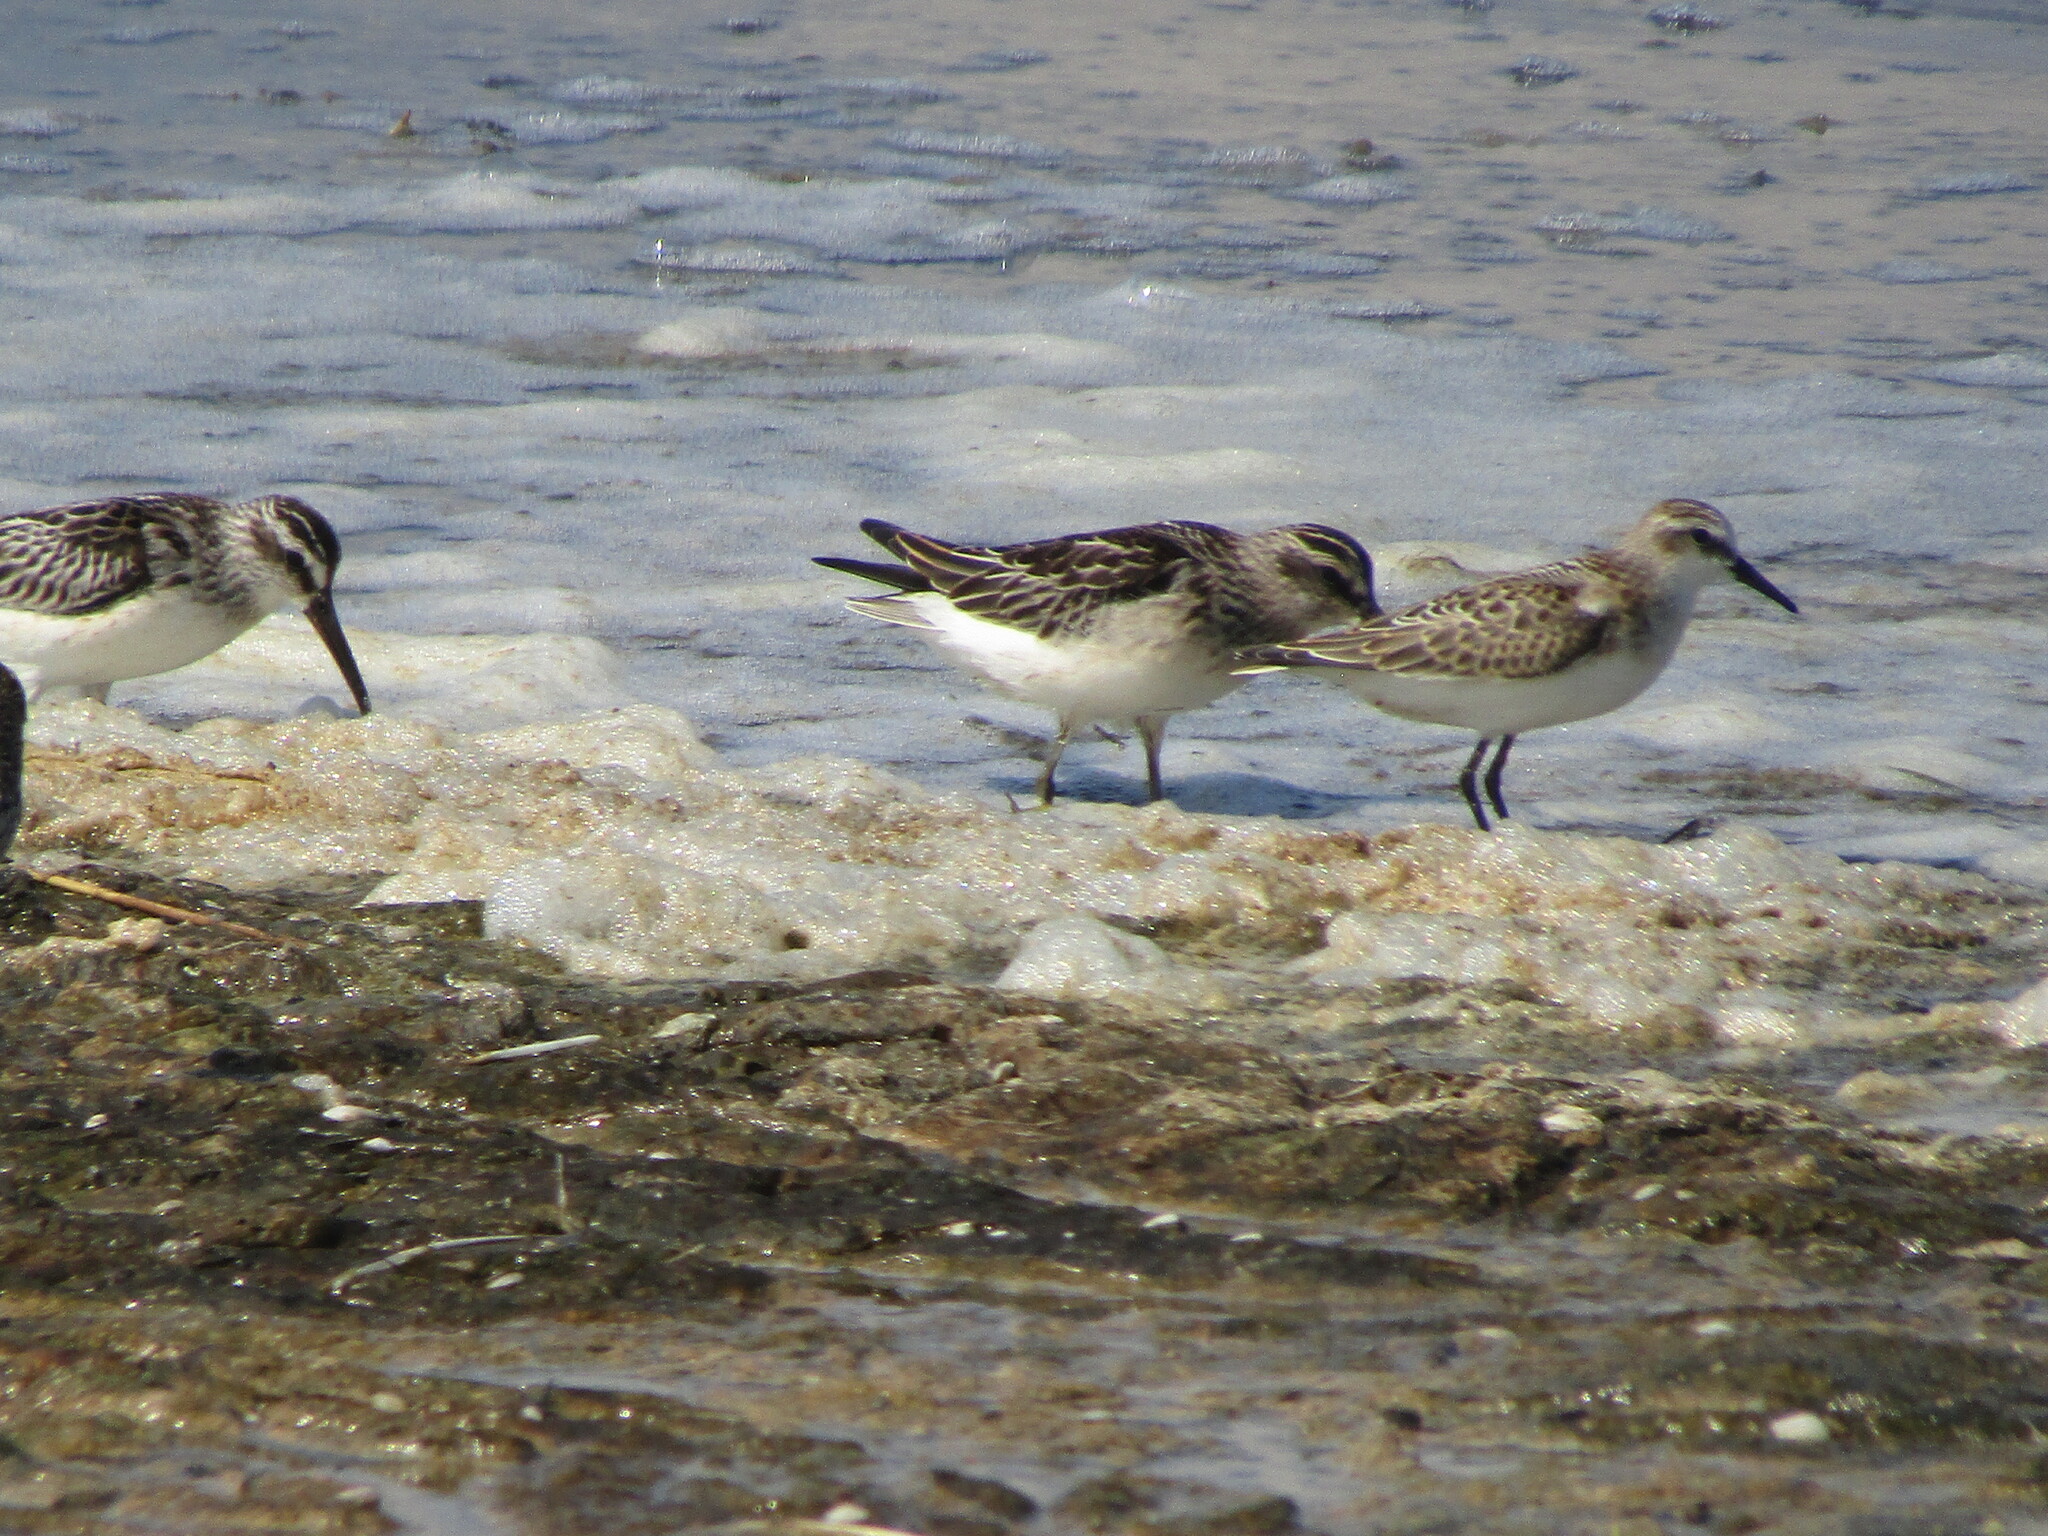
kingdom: Animalia
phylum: Chordata
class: Aves
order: Charadriiformes
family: Scolopacidae
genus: Calidris
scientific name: Calidris minuta
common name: Little stint
